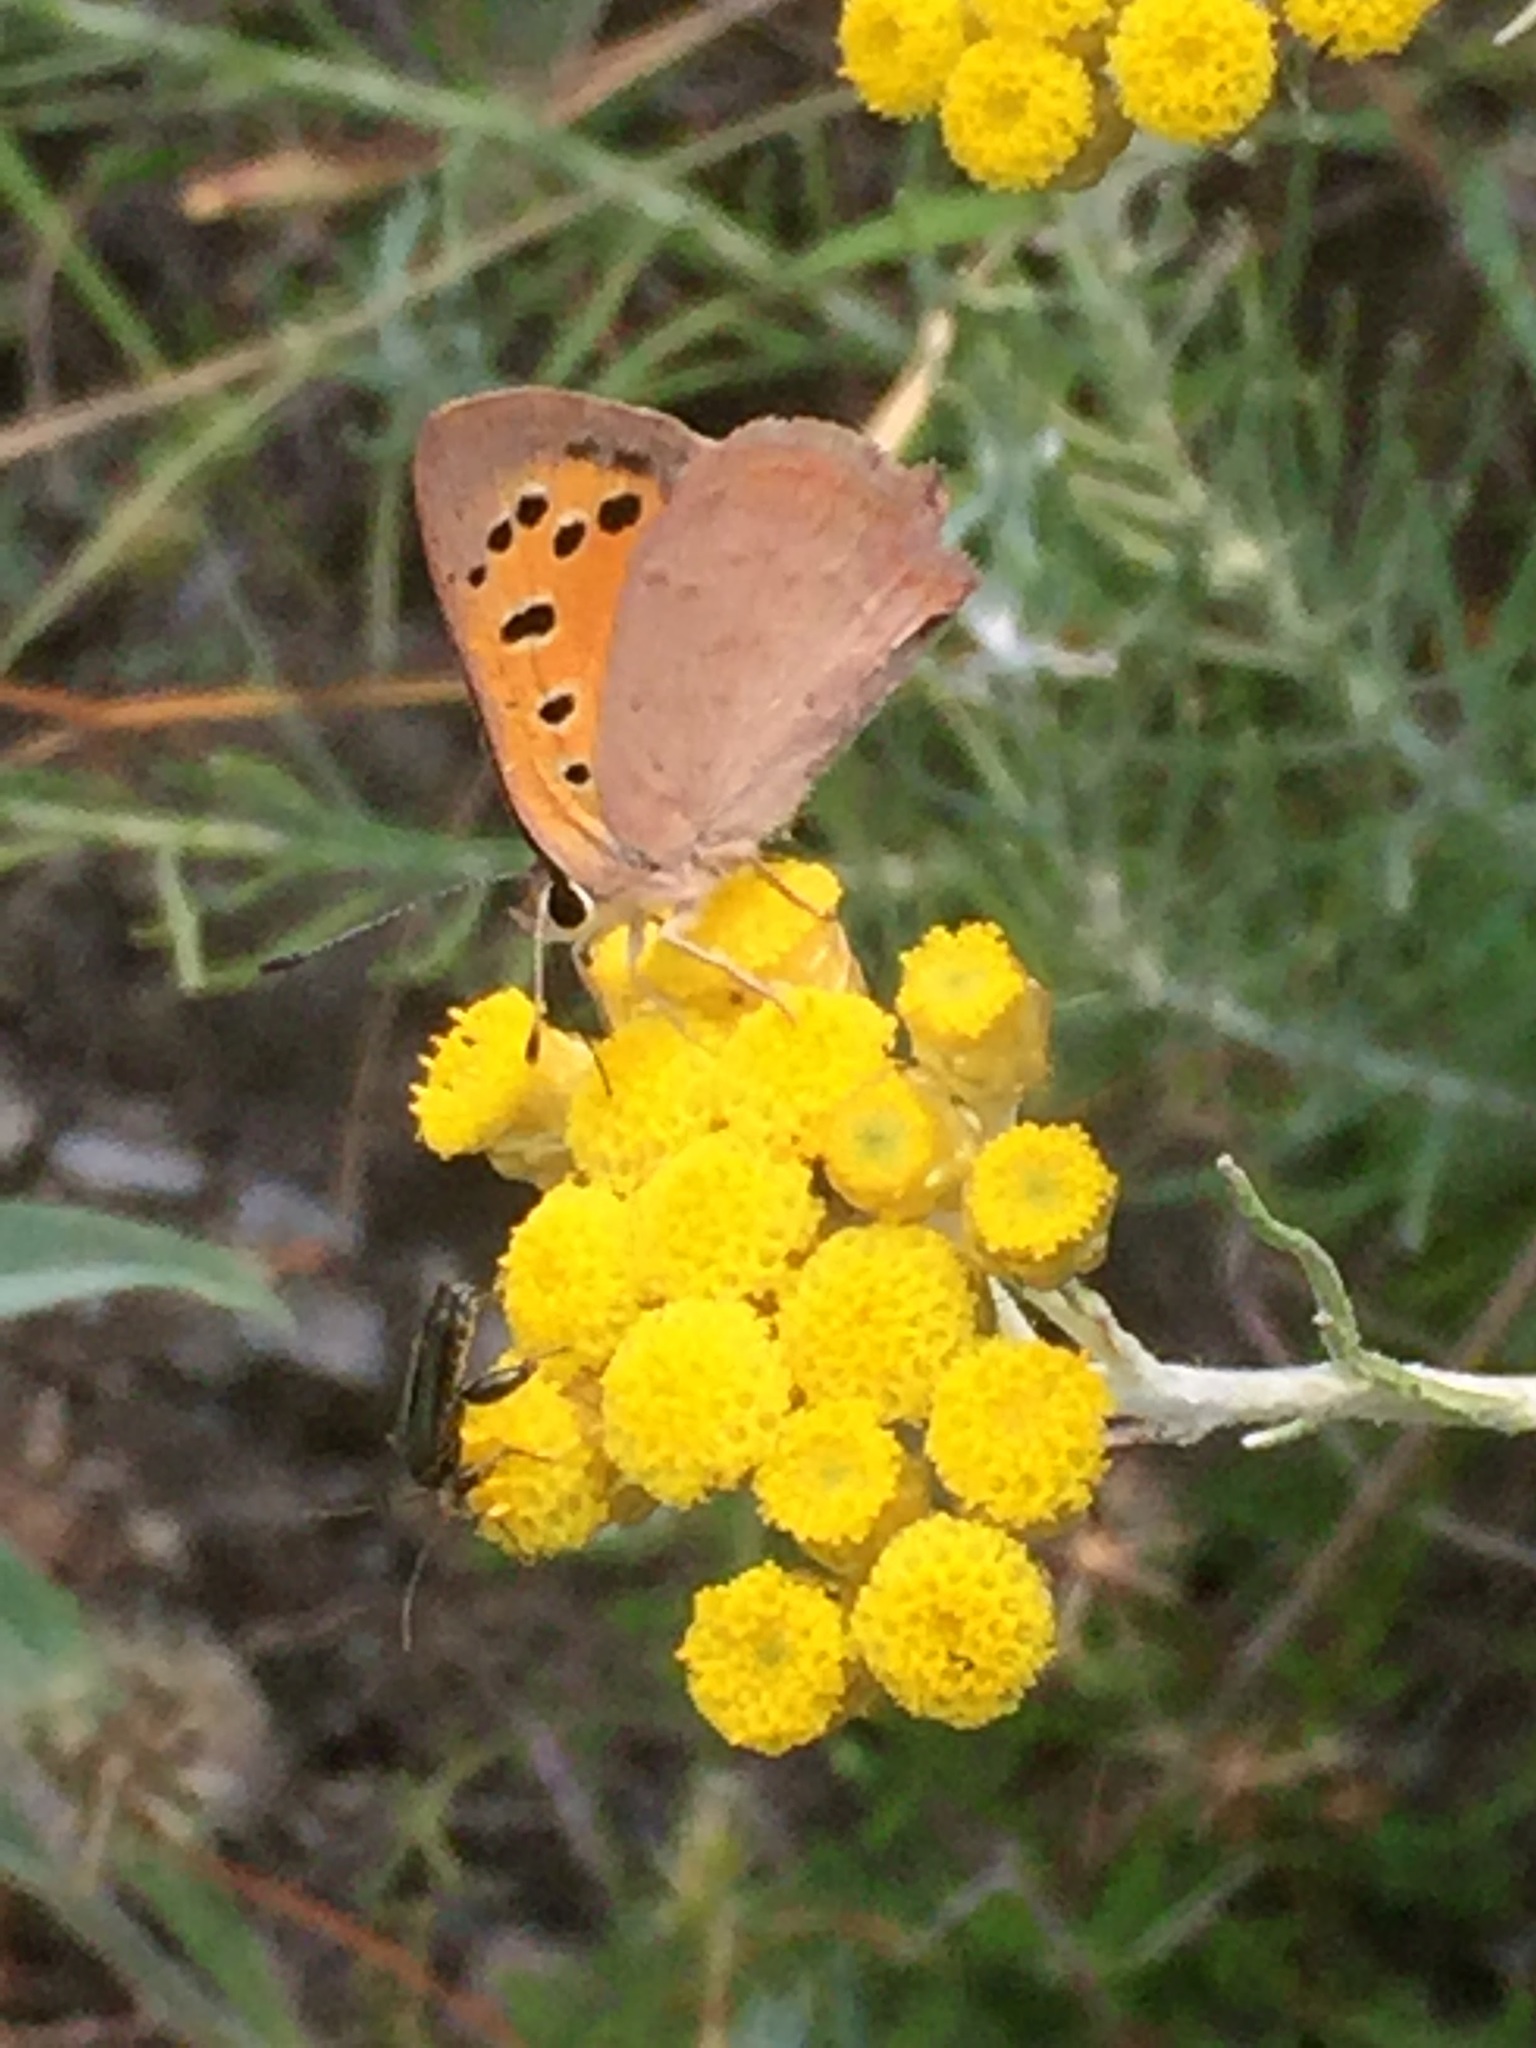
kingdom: Animalia
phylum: Arthropoda
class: Insecta
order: Lepidoptera
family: Lycaenidae
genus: Lycaena
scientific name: Lycaena phlaeas
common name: Small copper
